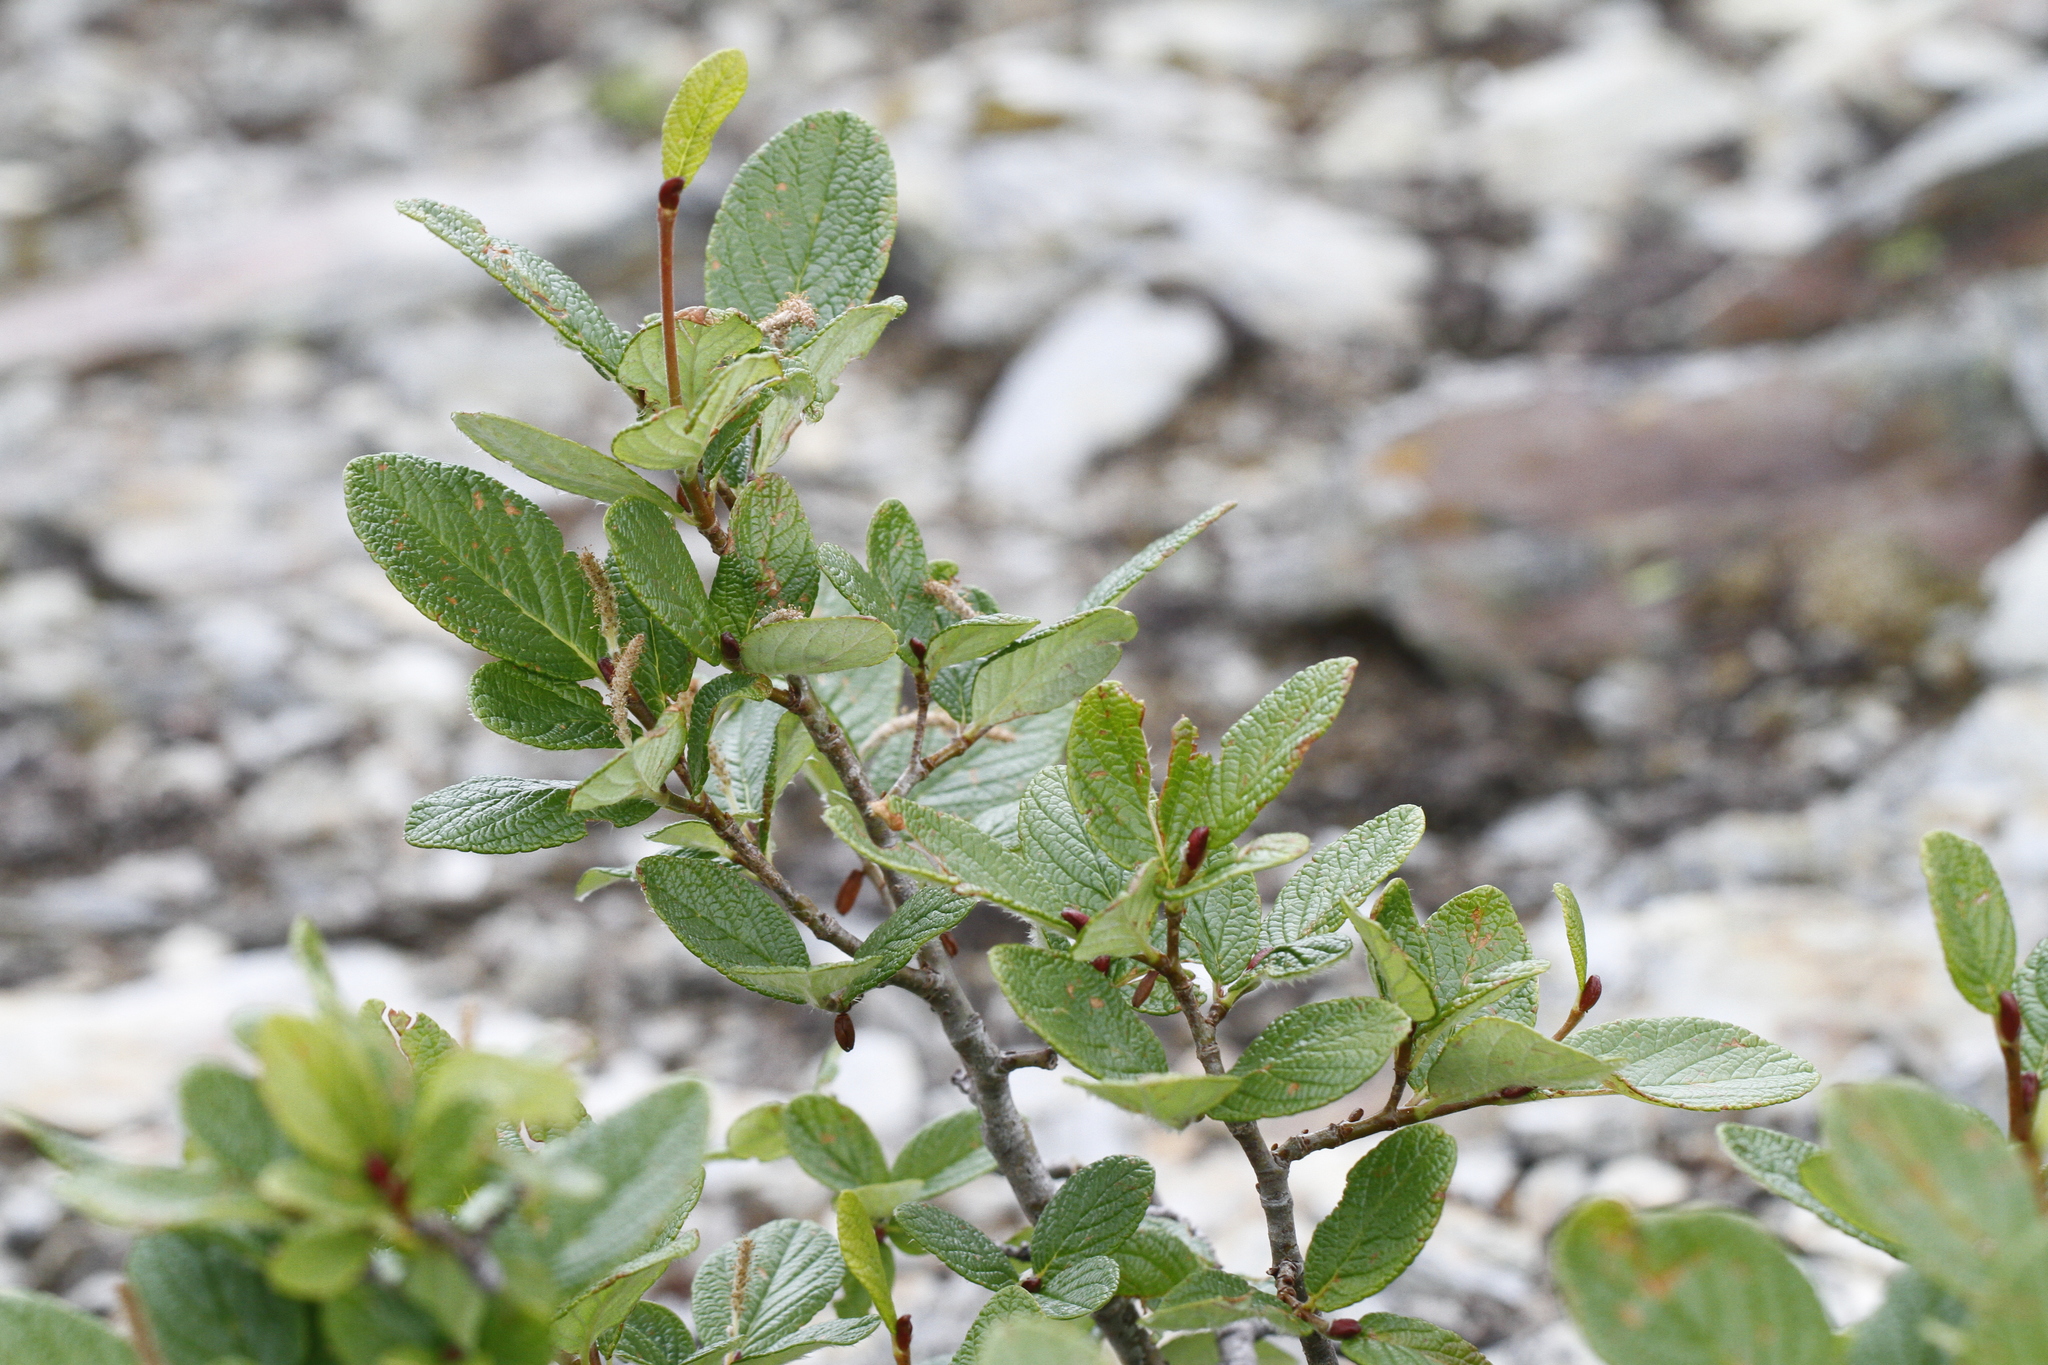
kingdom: Plantae
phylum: Tracheophyta
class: Magnoliopsida
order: Malpighiales
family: Salicaceae
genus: Salix
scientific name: Salix vestita
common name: Hairy willow
